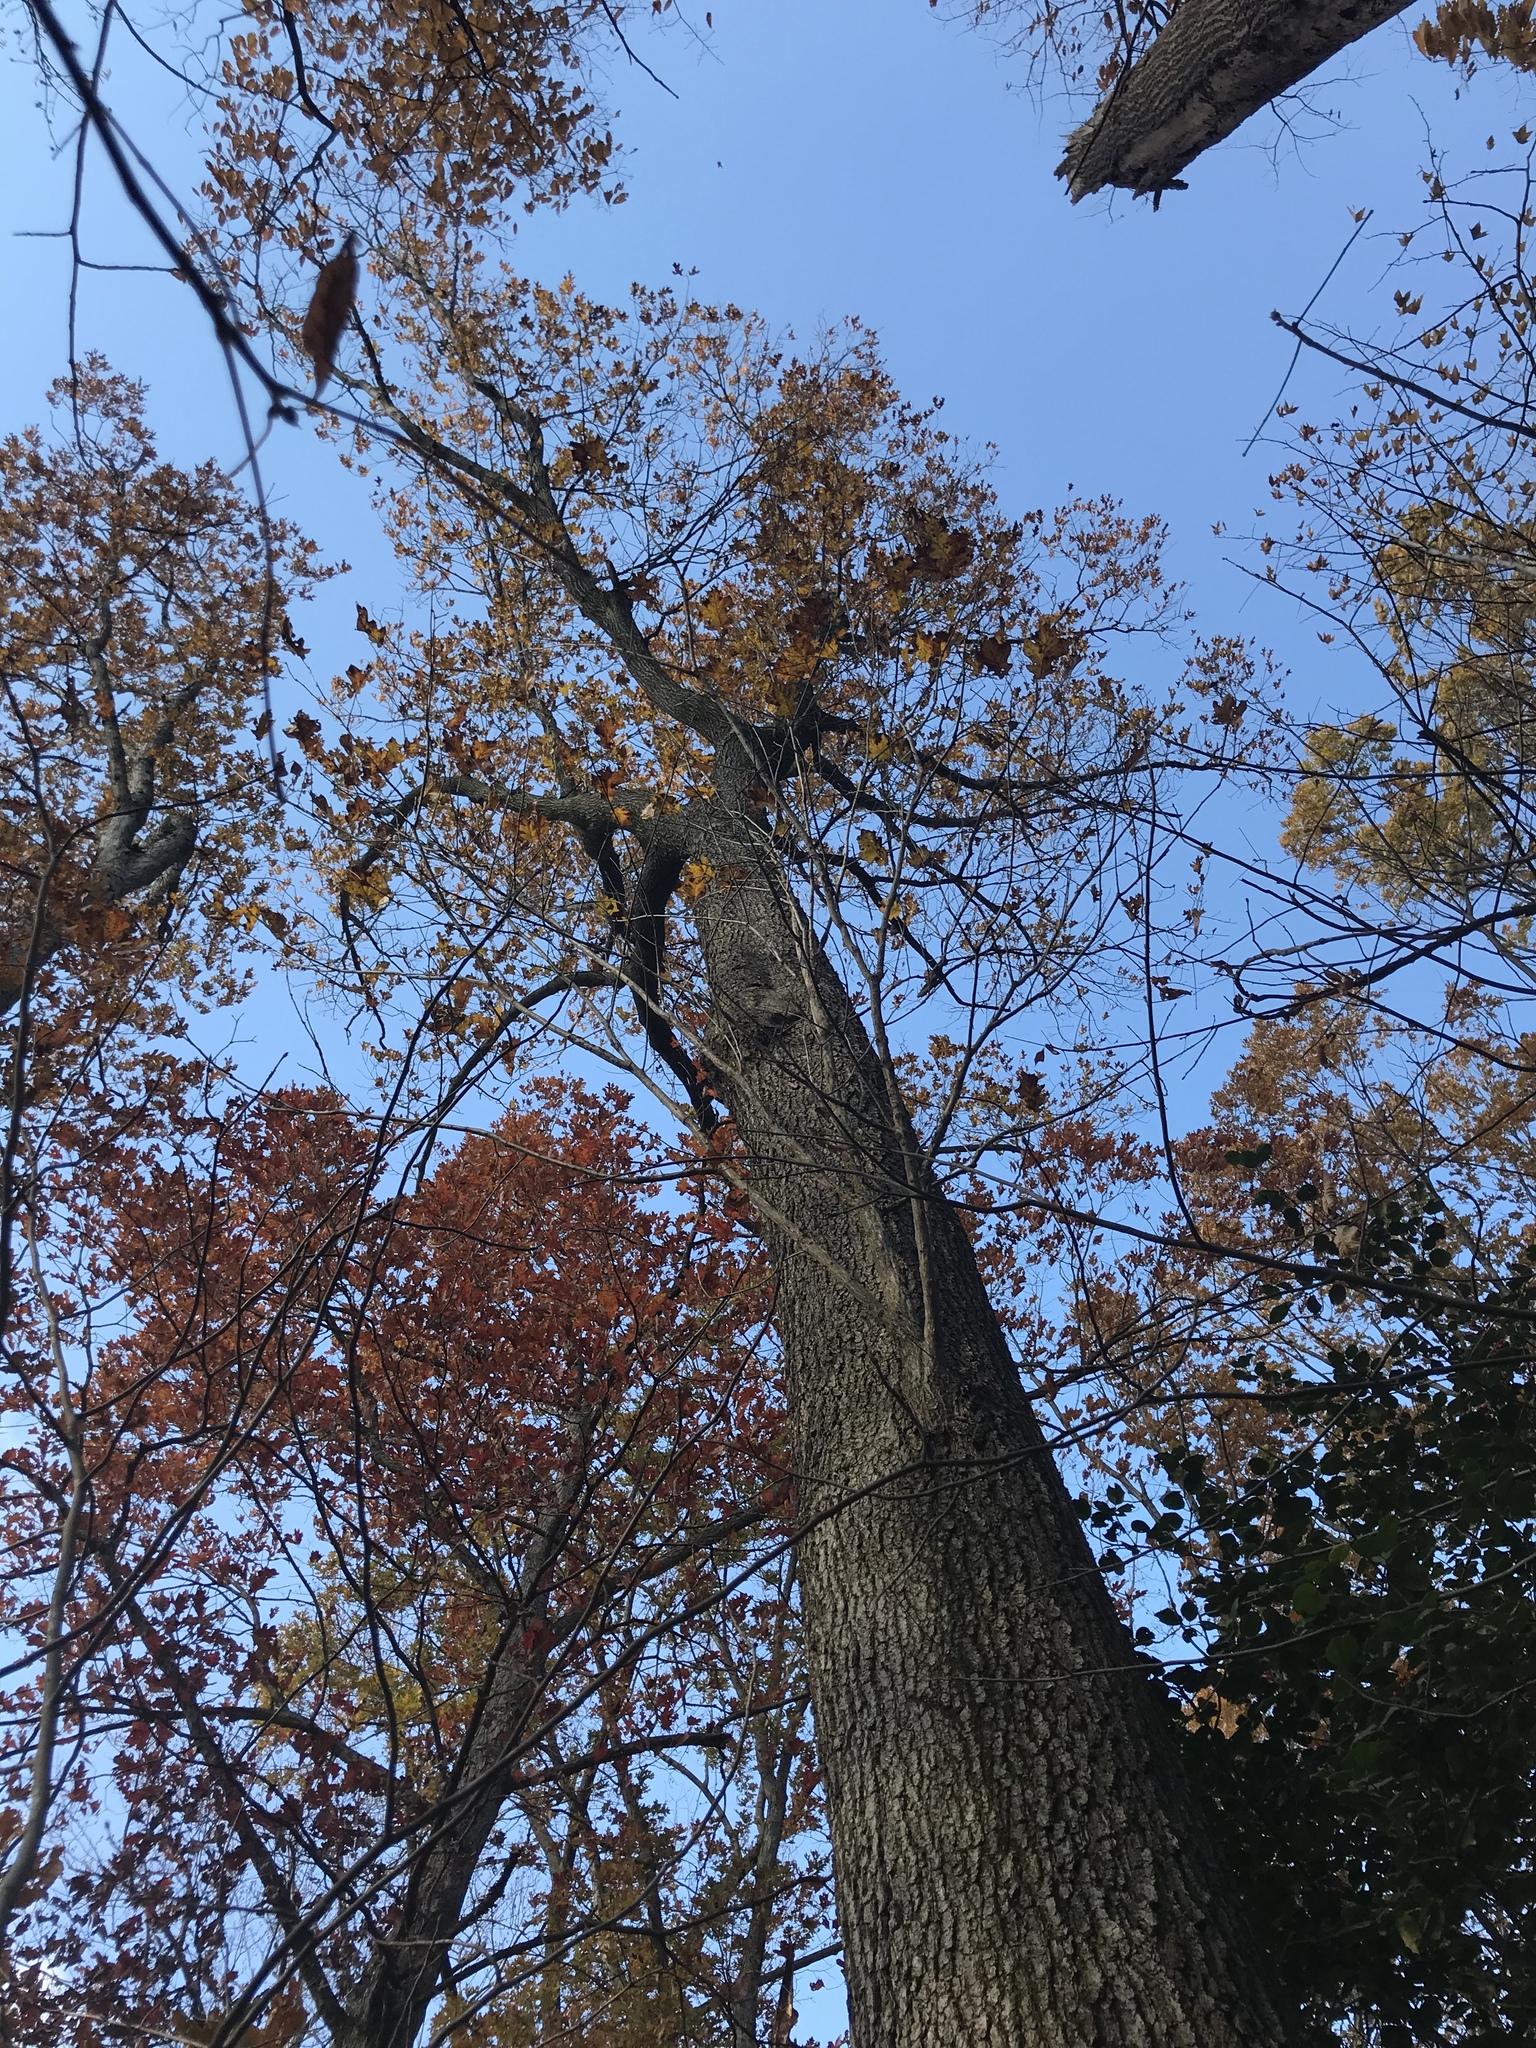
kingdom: Plantae
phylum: Tracheophyta
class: Magnoliopsida
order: Fagales
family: Fagaceae
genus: Quercus
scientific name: Quercus velutina
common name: Black oak
